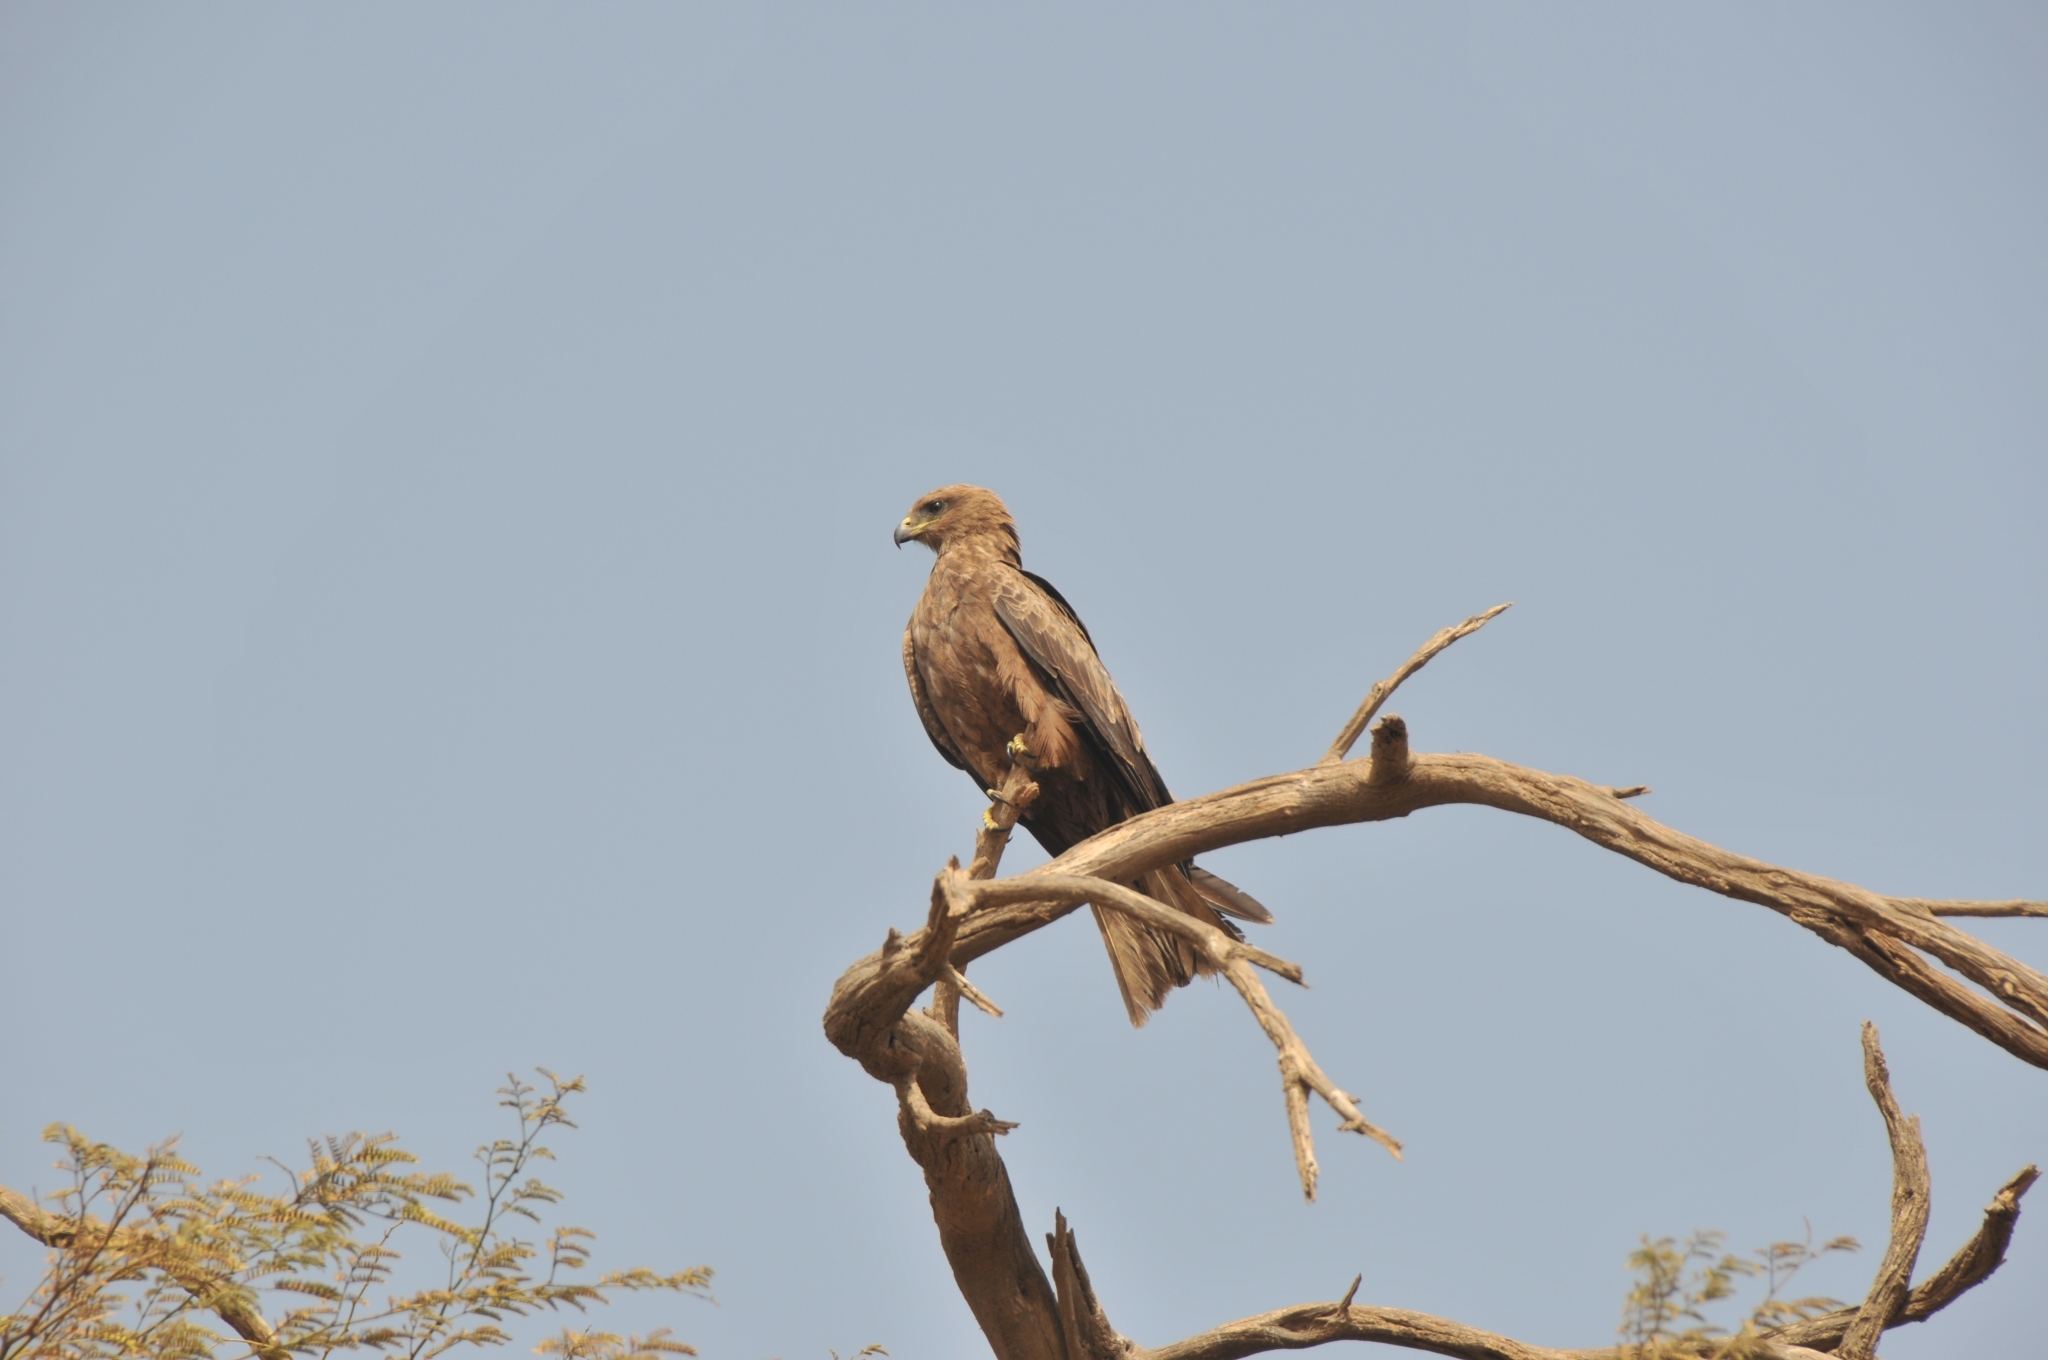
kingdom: Animalia
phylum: Chordata
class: Aves
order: Accipitriformes
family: Accipitridae
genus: Milvus
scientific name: Milvus migrans
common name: Black kite
